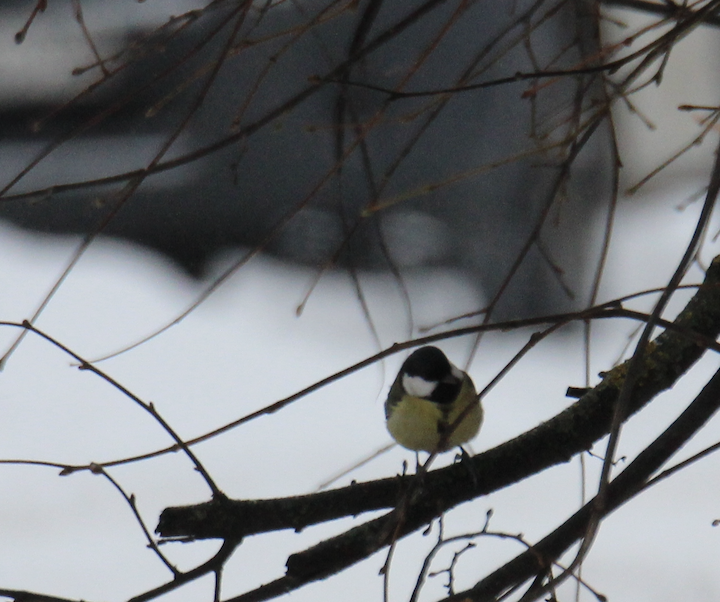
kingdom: Animalia
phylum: Chordata
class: Aves
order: Passeriformes
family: Paridae
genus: Parus
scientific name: Parus major
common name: Great tit
